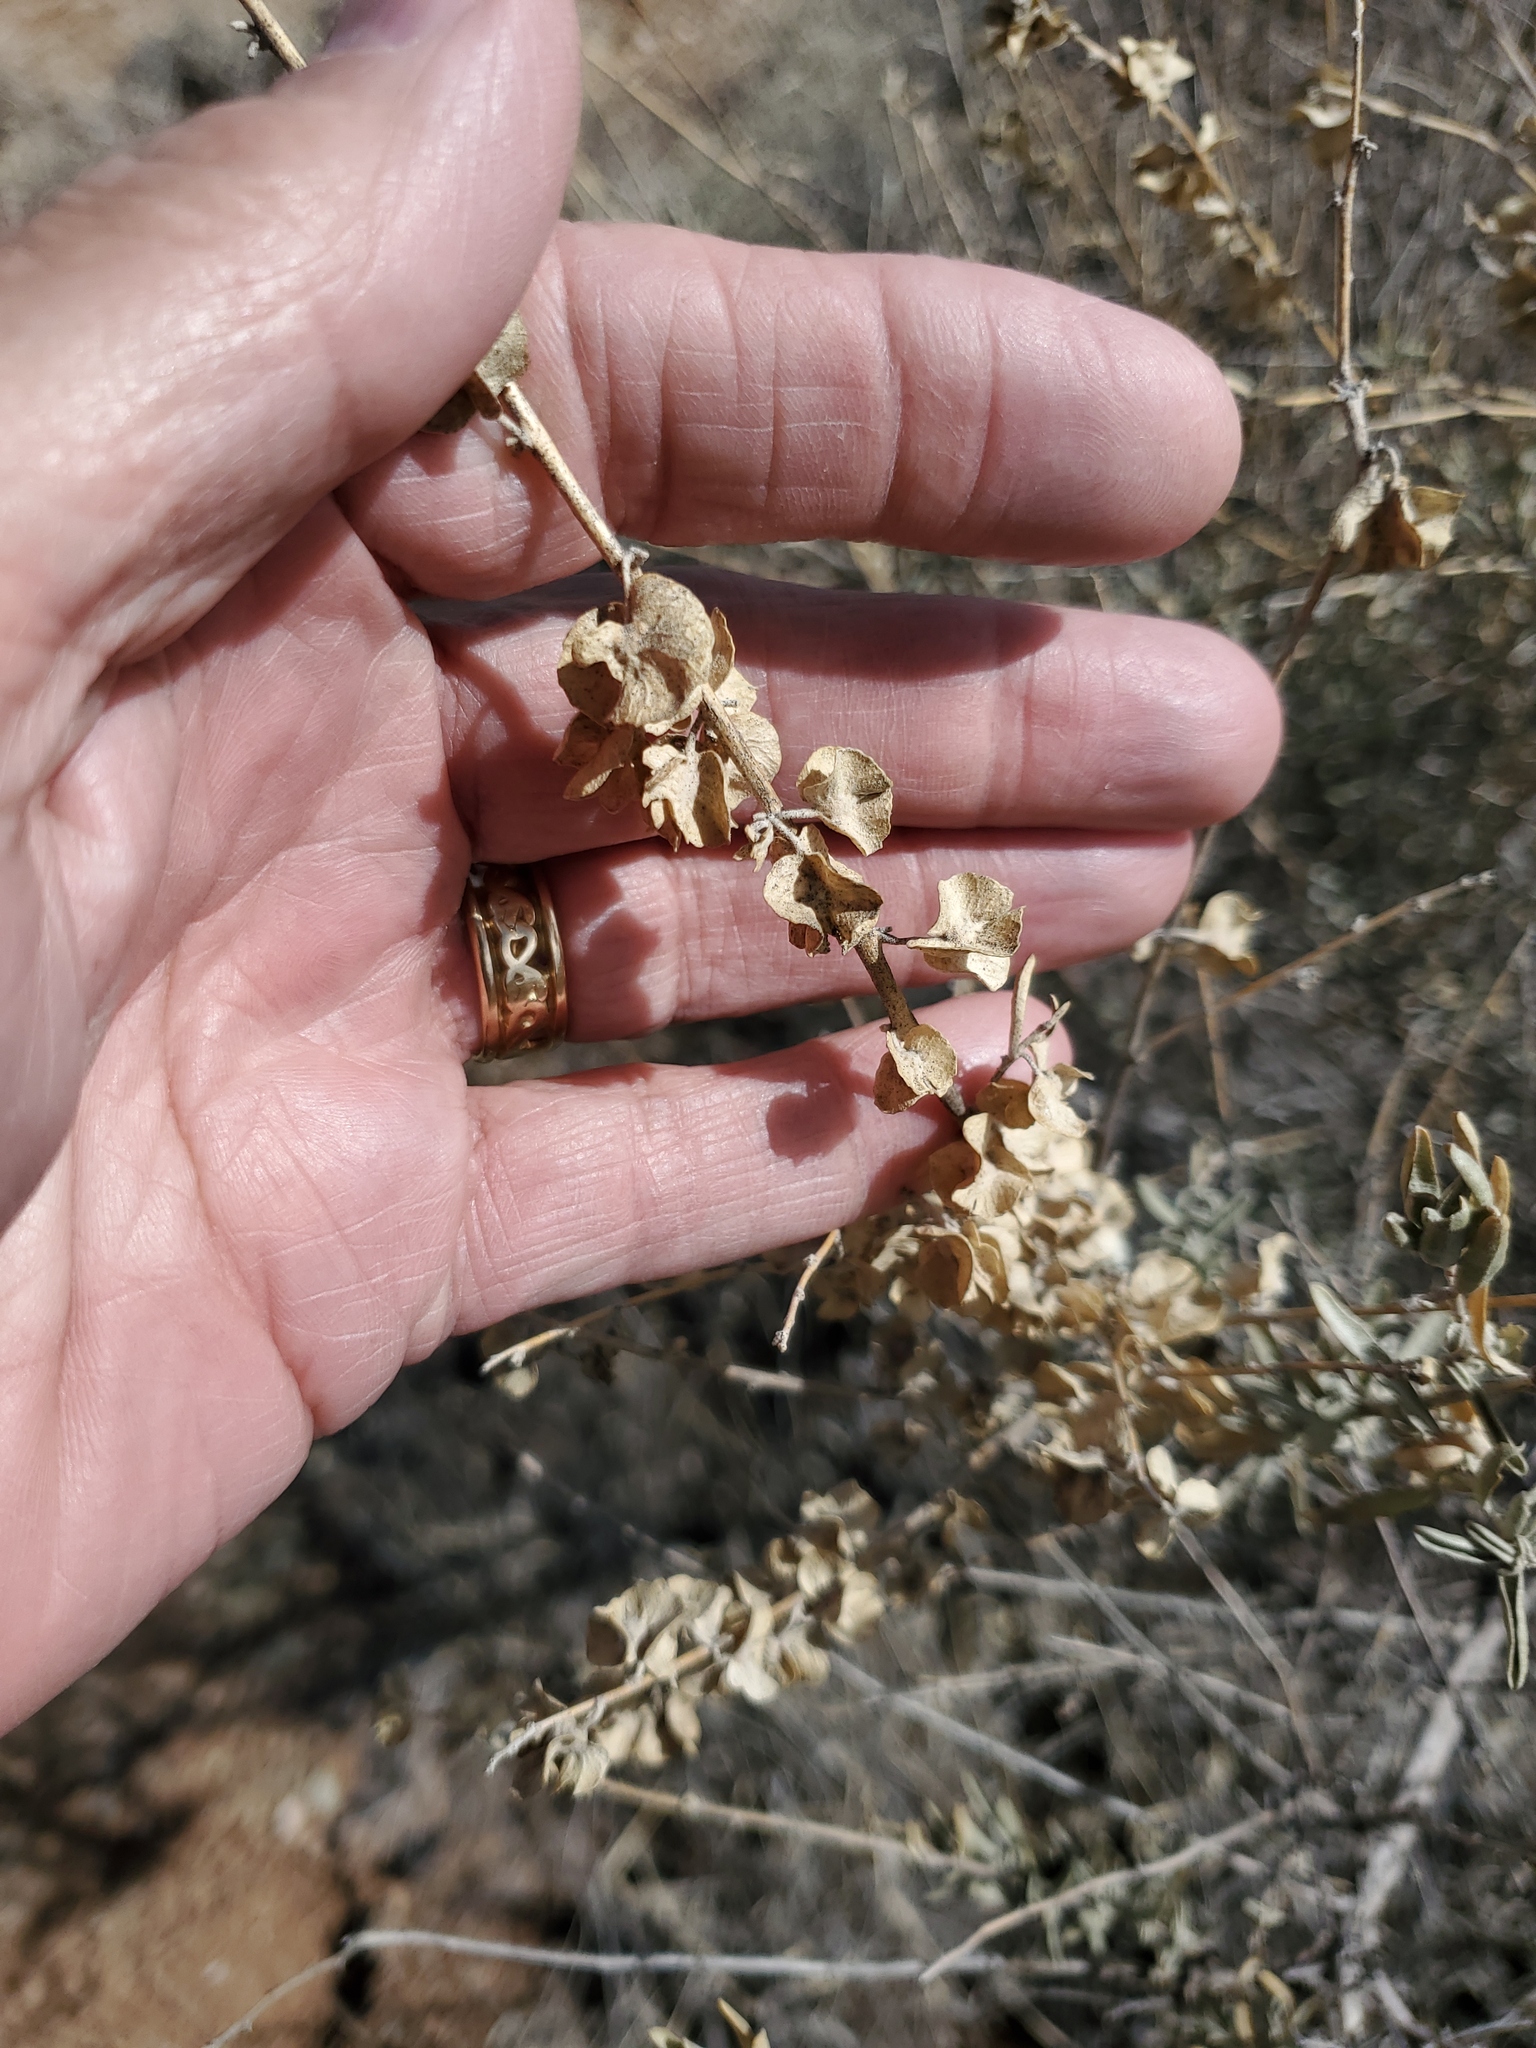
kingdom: Plantae
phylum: Tracheophyta
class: Magnoliopsida
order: Caryophyllales
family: Amaranthaceae
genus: Atriplex
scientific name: Atriplex canescens
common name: Four-wing saltbush
